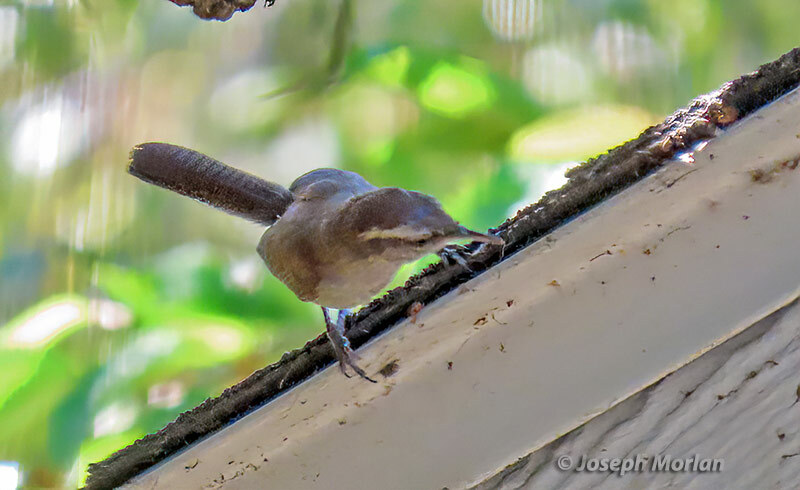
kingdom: Animalia
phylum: Chordata
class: Aves
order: Passeriformes
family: Troglodytidae
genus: Thryomanes
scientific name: Thryomanes bewickii
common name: Bewick's wren
